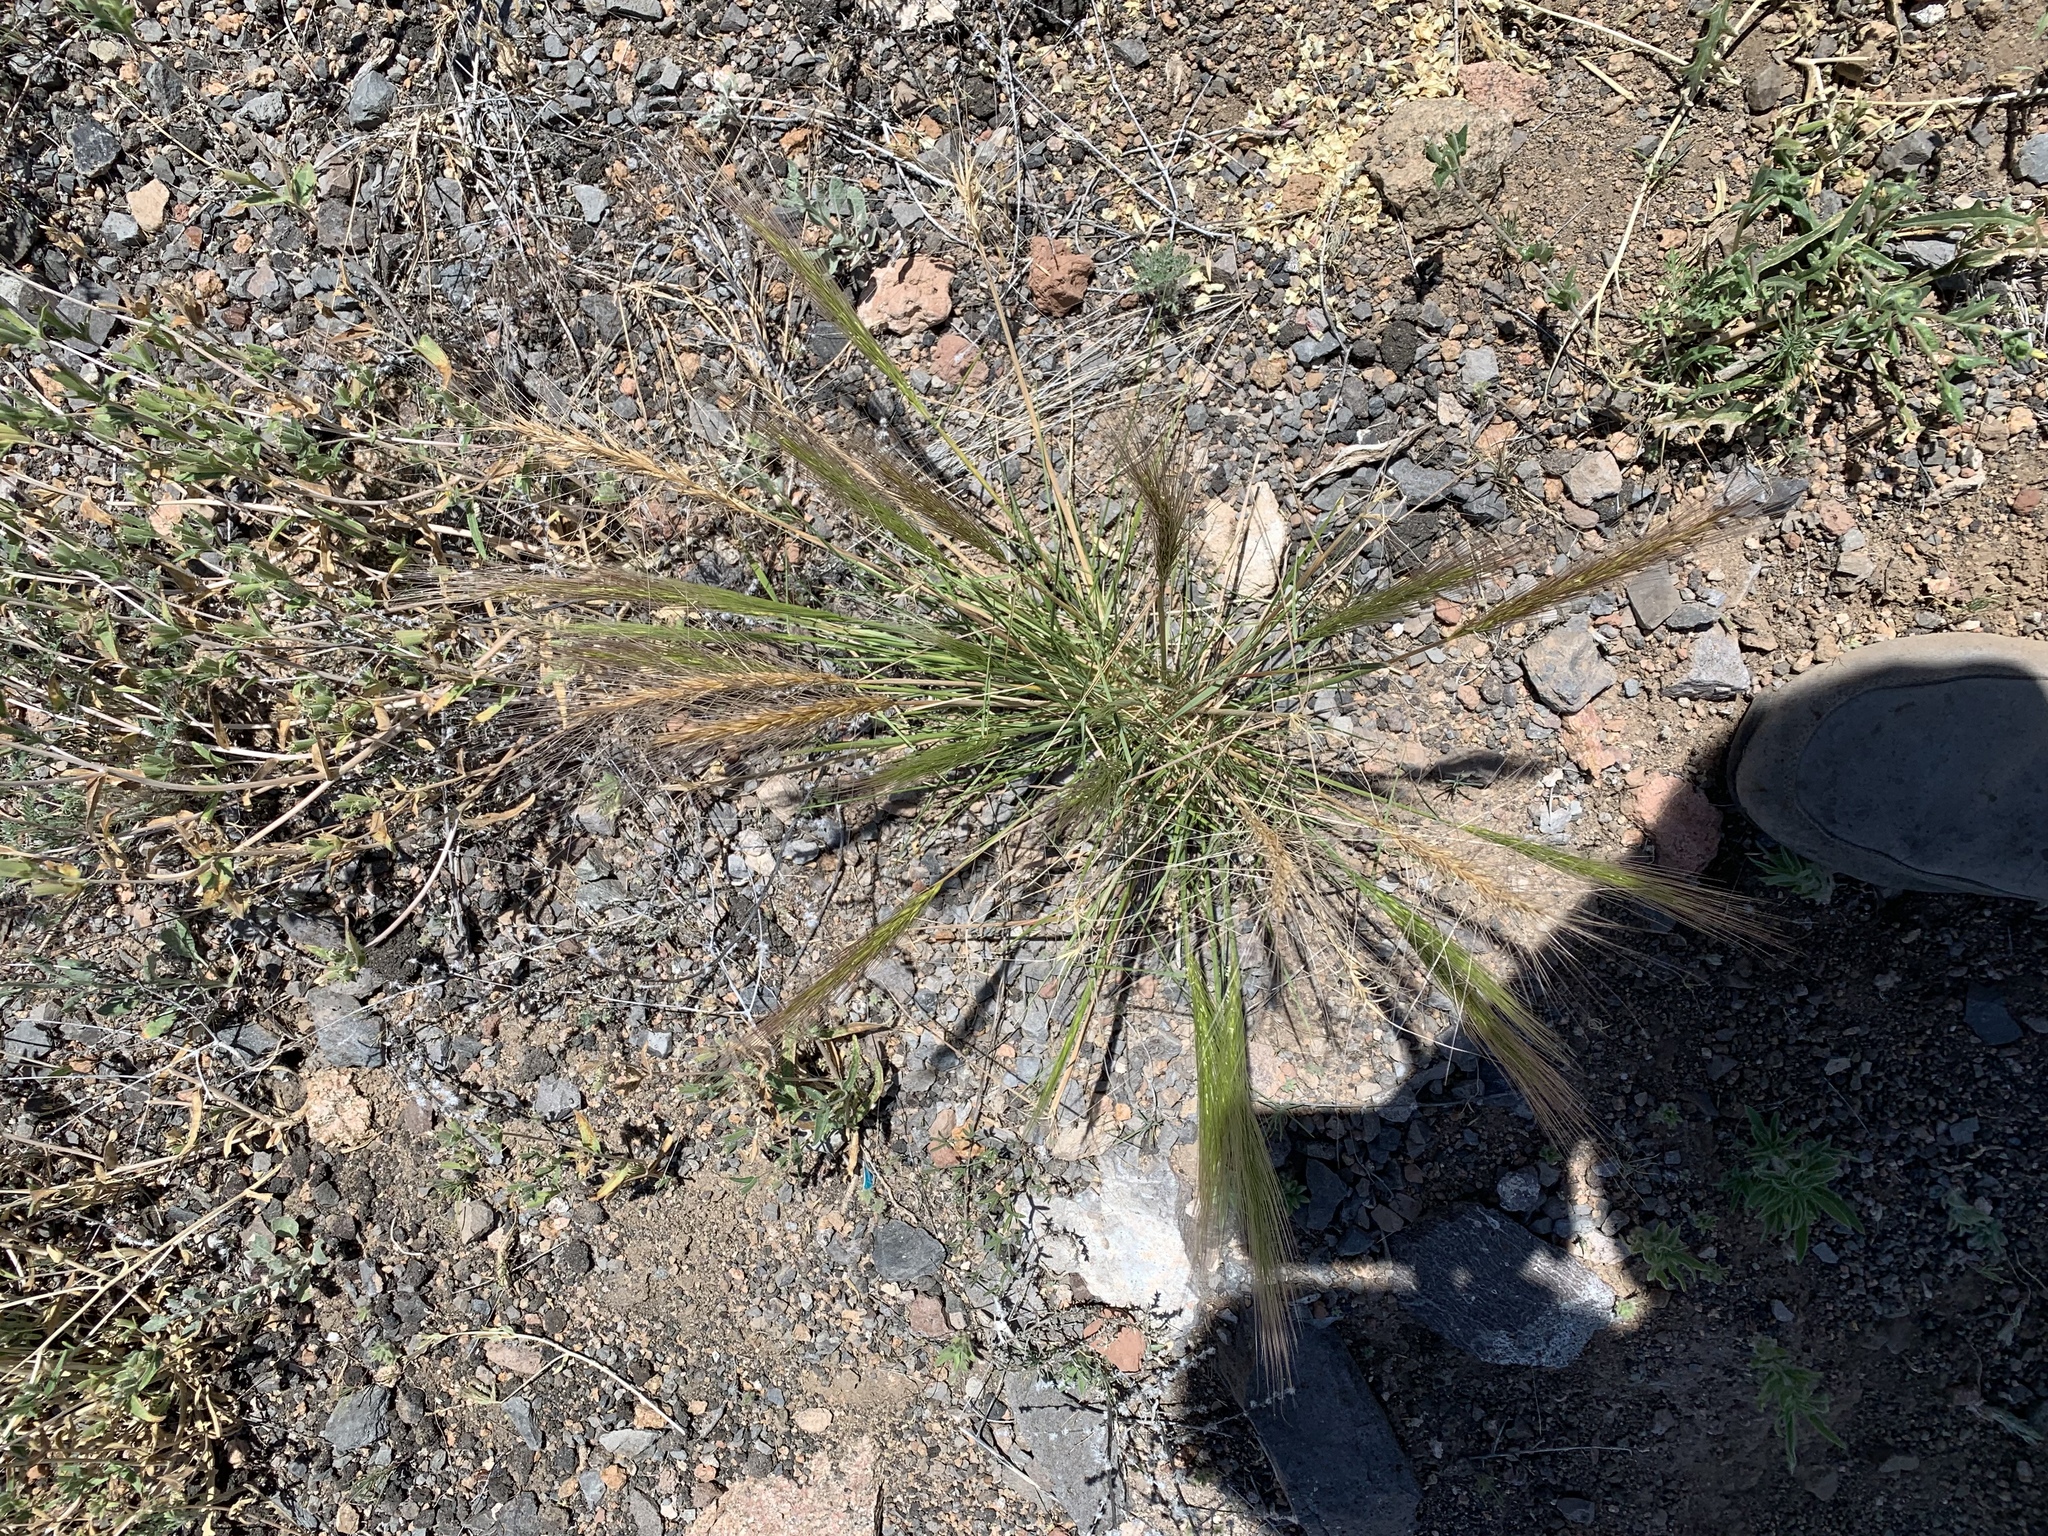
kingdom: Plantae
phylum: Tracheophyta
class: Liliopsida
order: Poales
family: Poaceae
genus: Elymus
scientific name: Elymus elymoides
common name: Bottlebrush squirreltail
